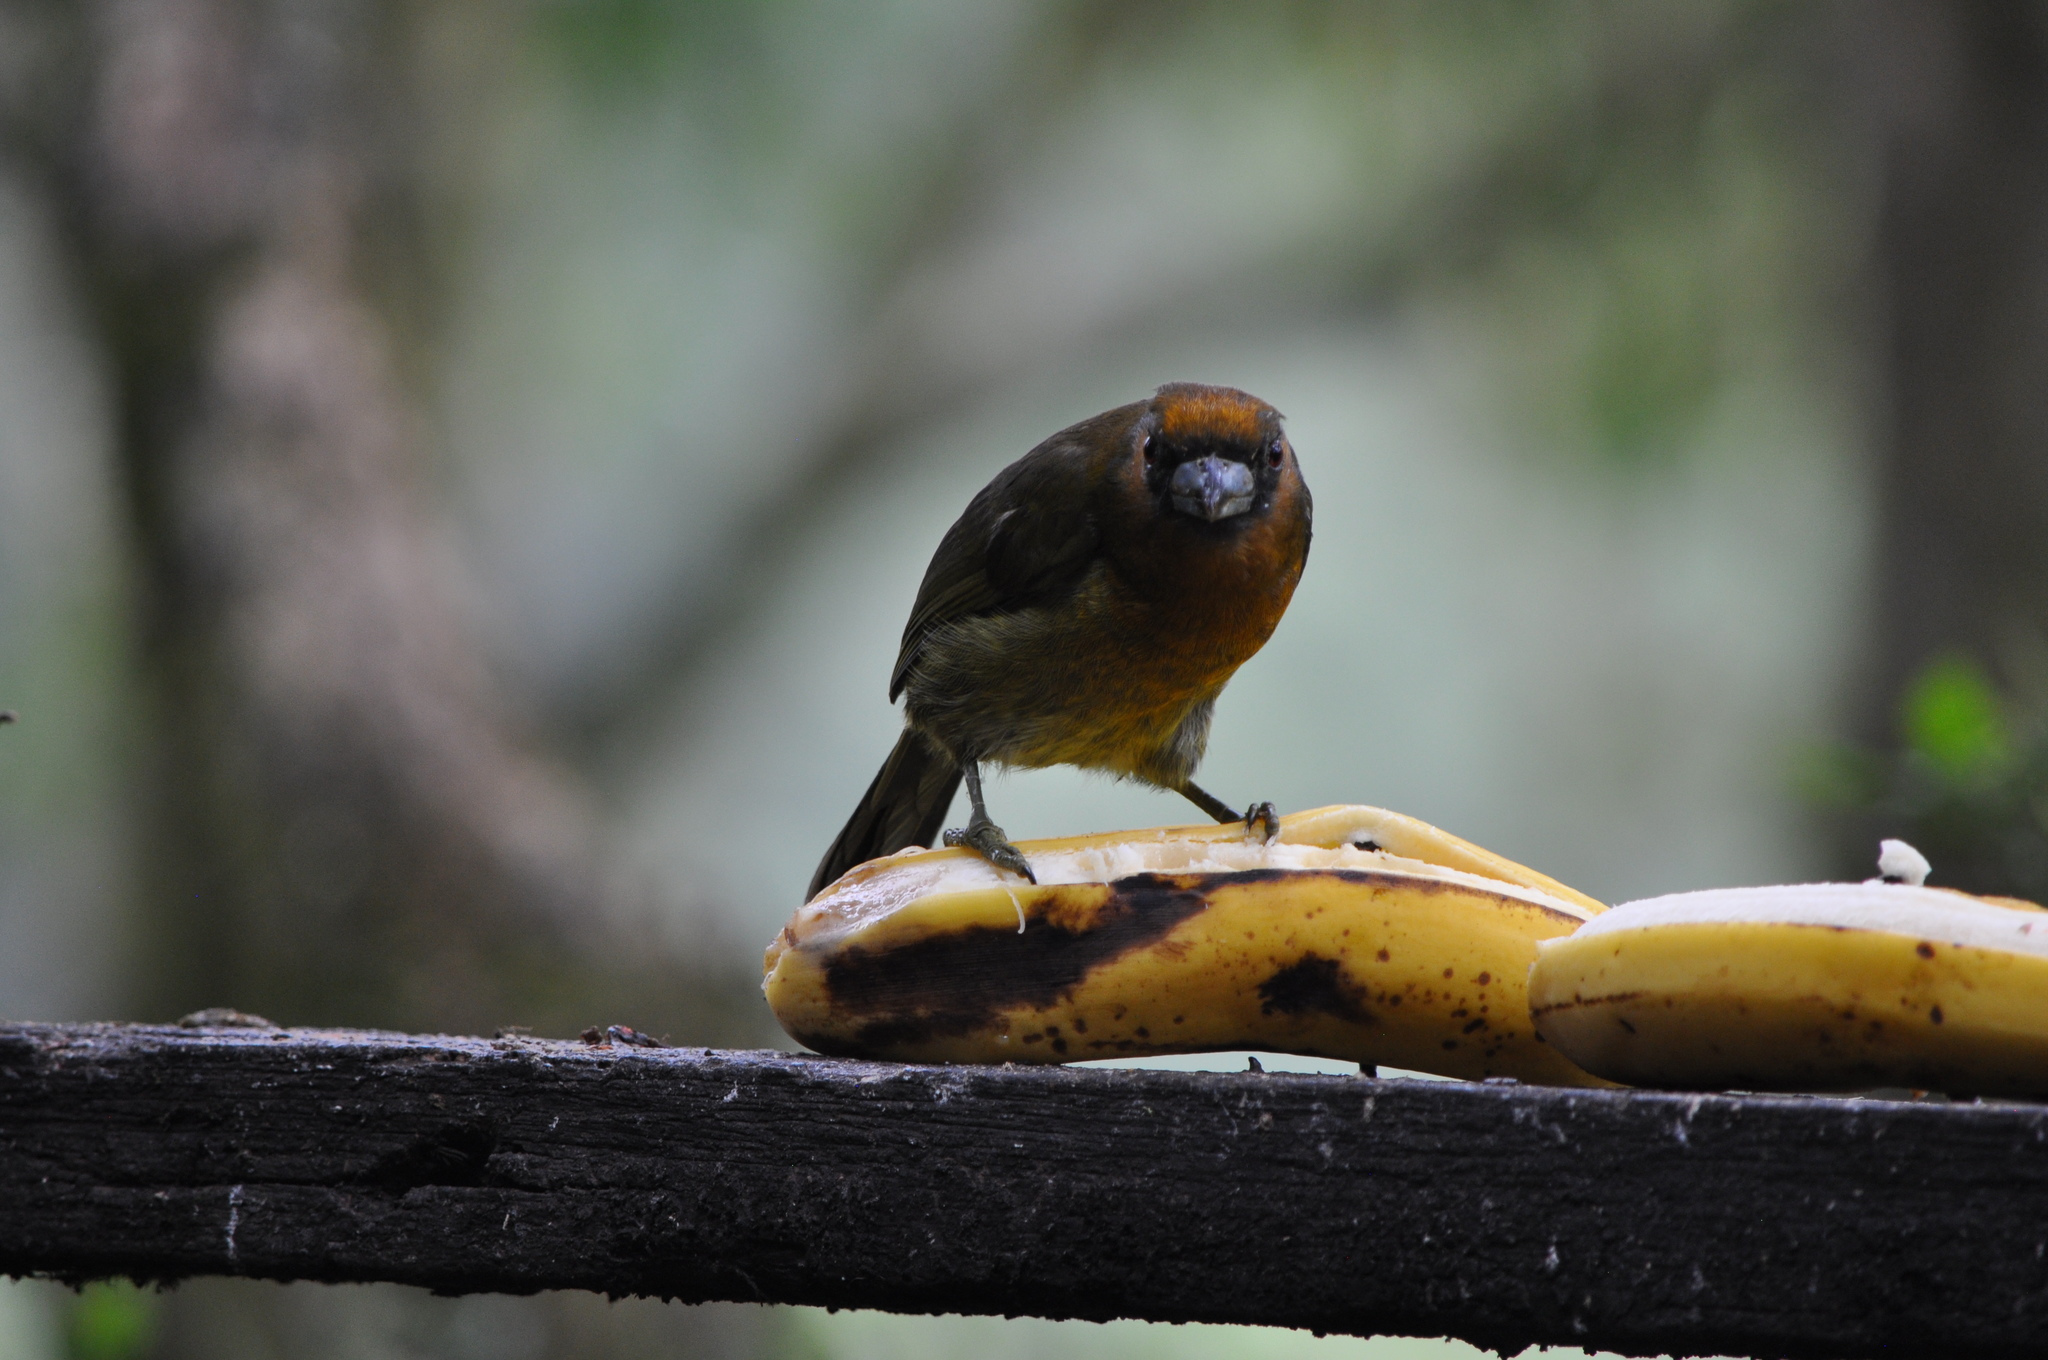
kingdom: Animalia
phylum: Chordata
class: Aves
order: Piciformes
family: Semnornithidae
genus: Semnornis
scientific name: Semnornis frantzii
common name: Prong-billed barbet
